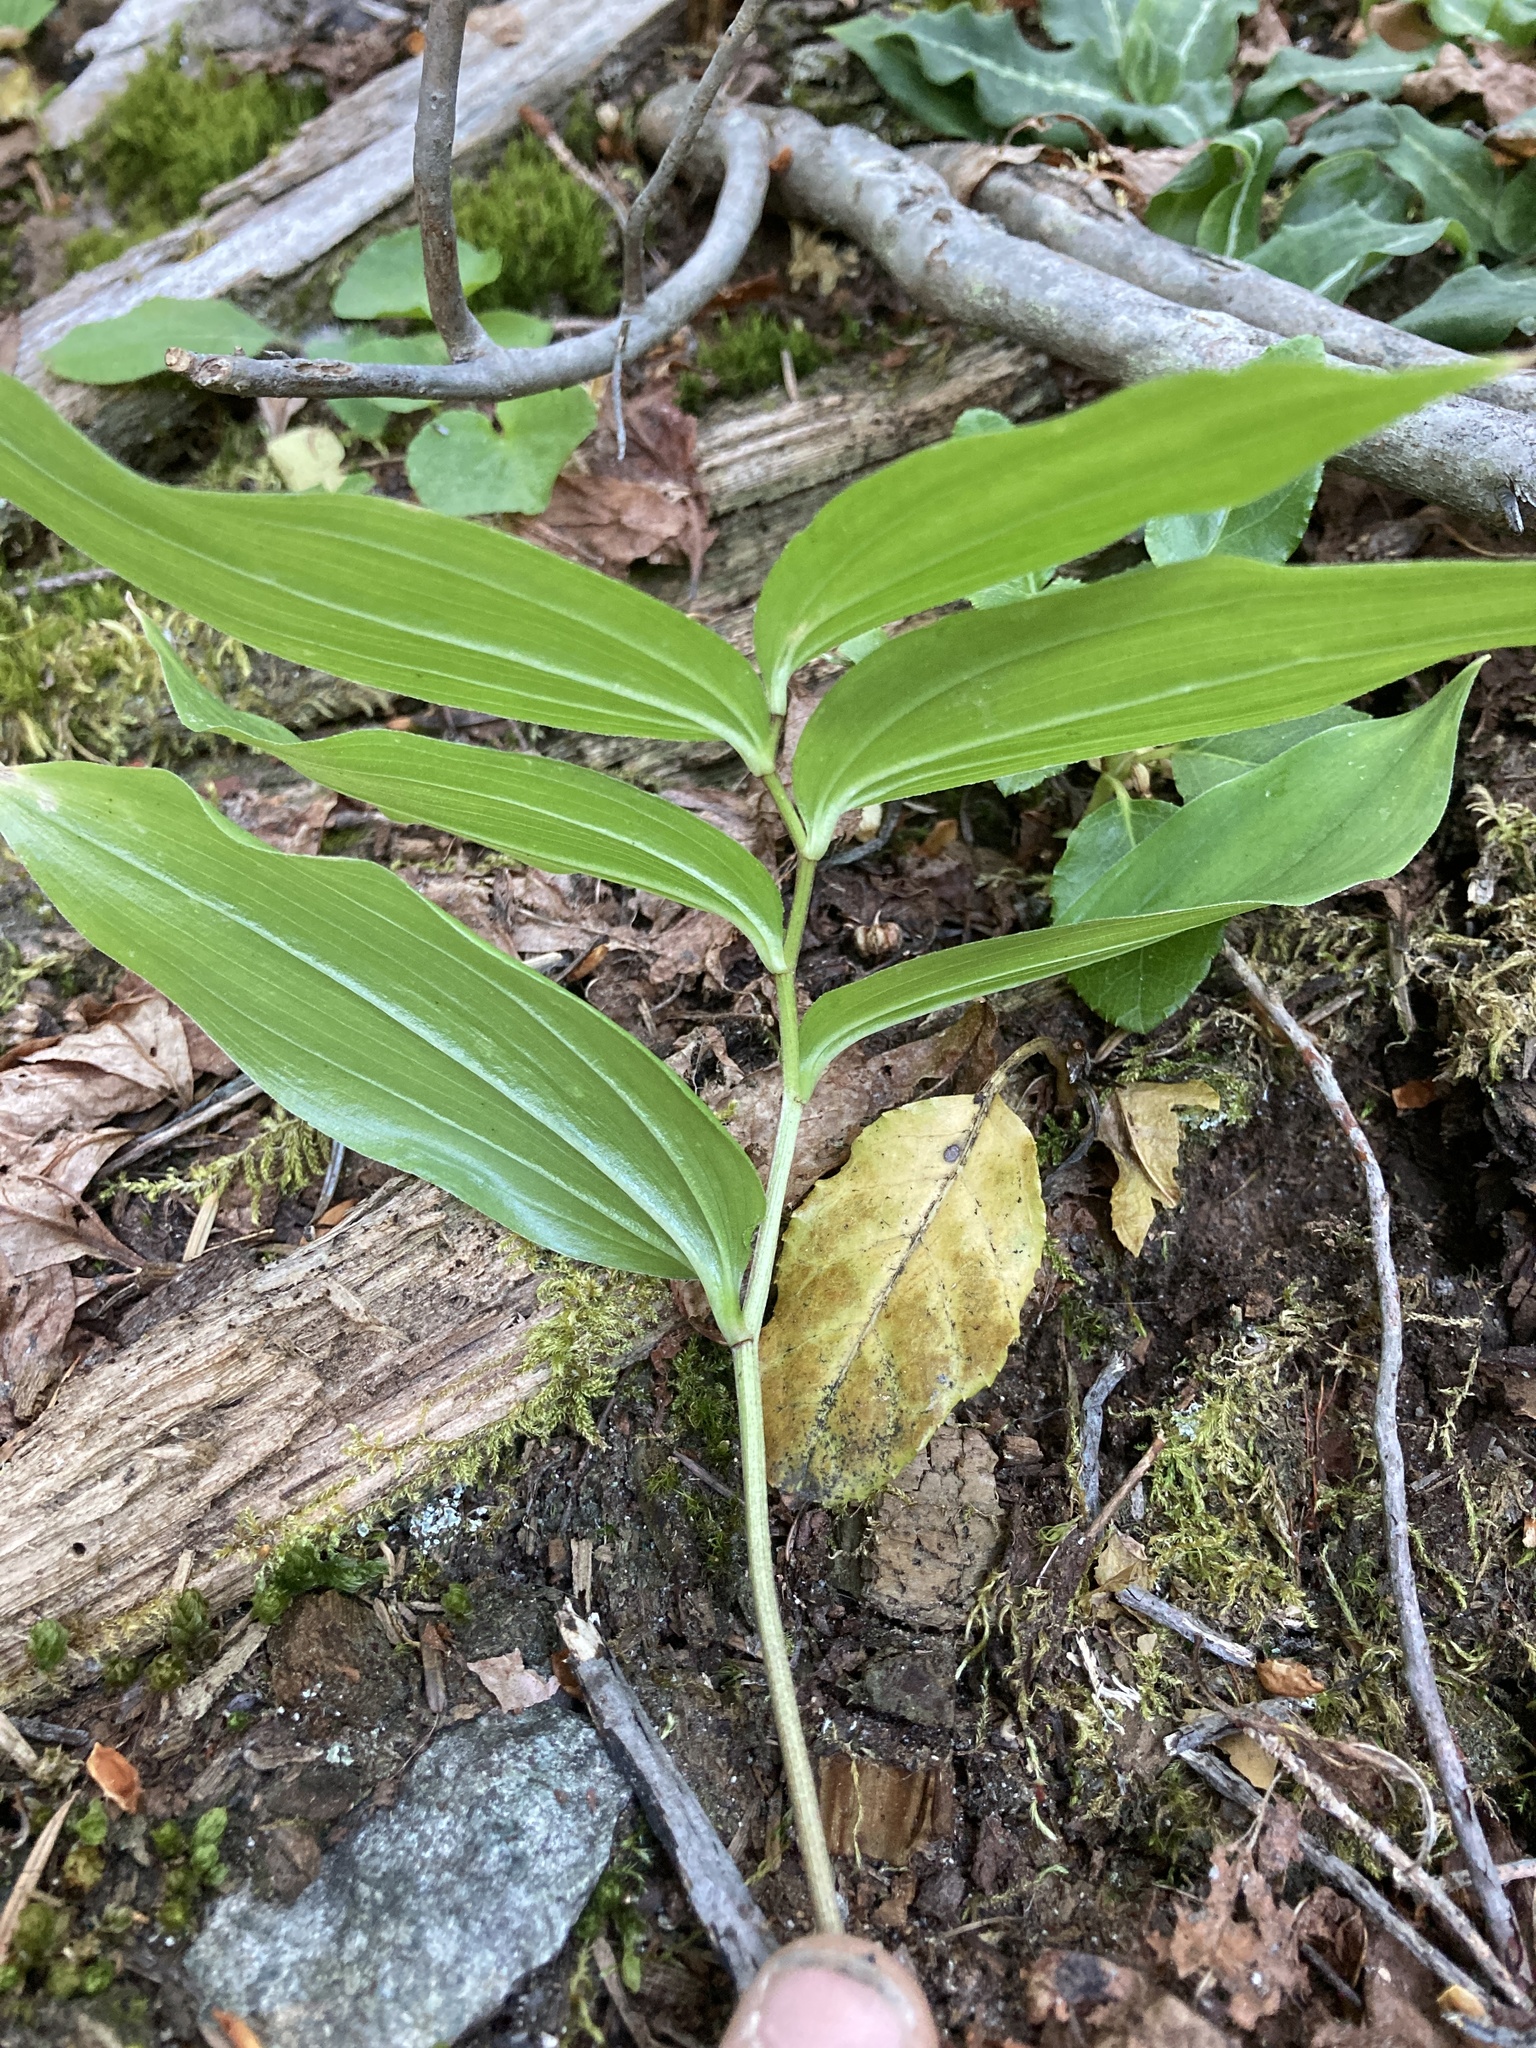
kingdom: Plantae
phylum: Tracheophyta
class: Liliopsida
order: Asparagales
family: Asparagaceae
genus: Maianthemum
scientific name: Maianthemum racemosum
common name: False spikenard
